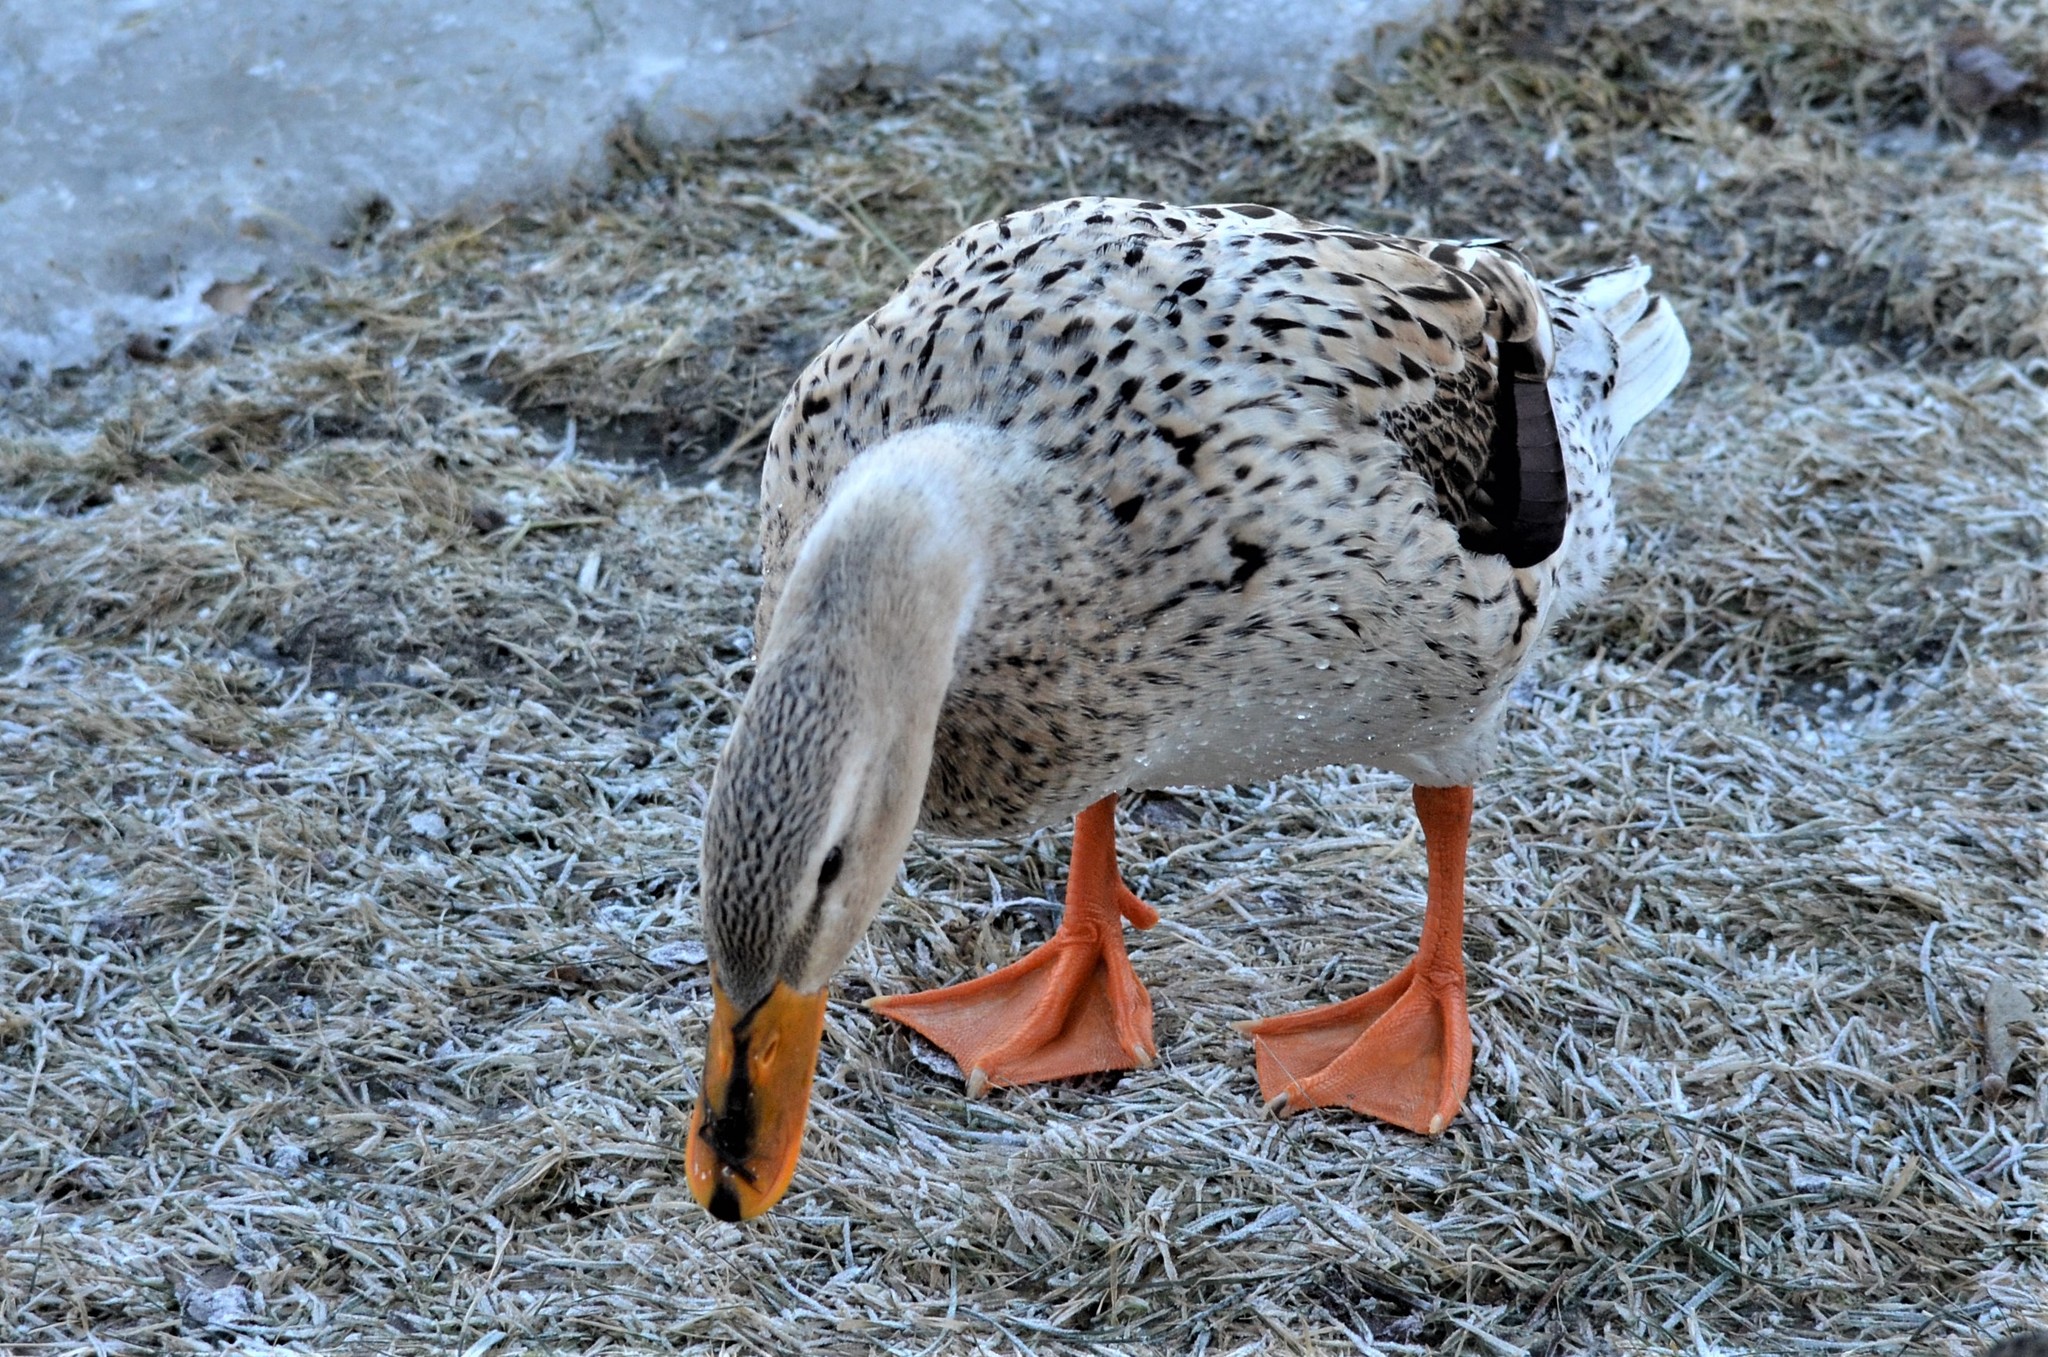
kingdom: Animalia
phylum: Chordata
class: Aves
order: Anseriformes
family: Anatidae
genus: Anas
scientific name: Anas platyrhynchos
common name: Mallard
